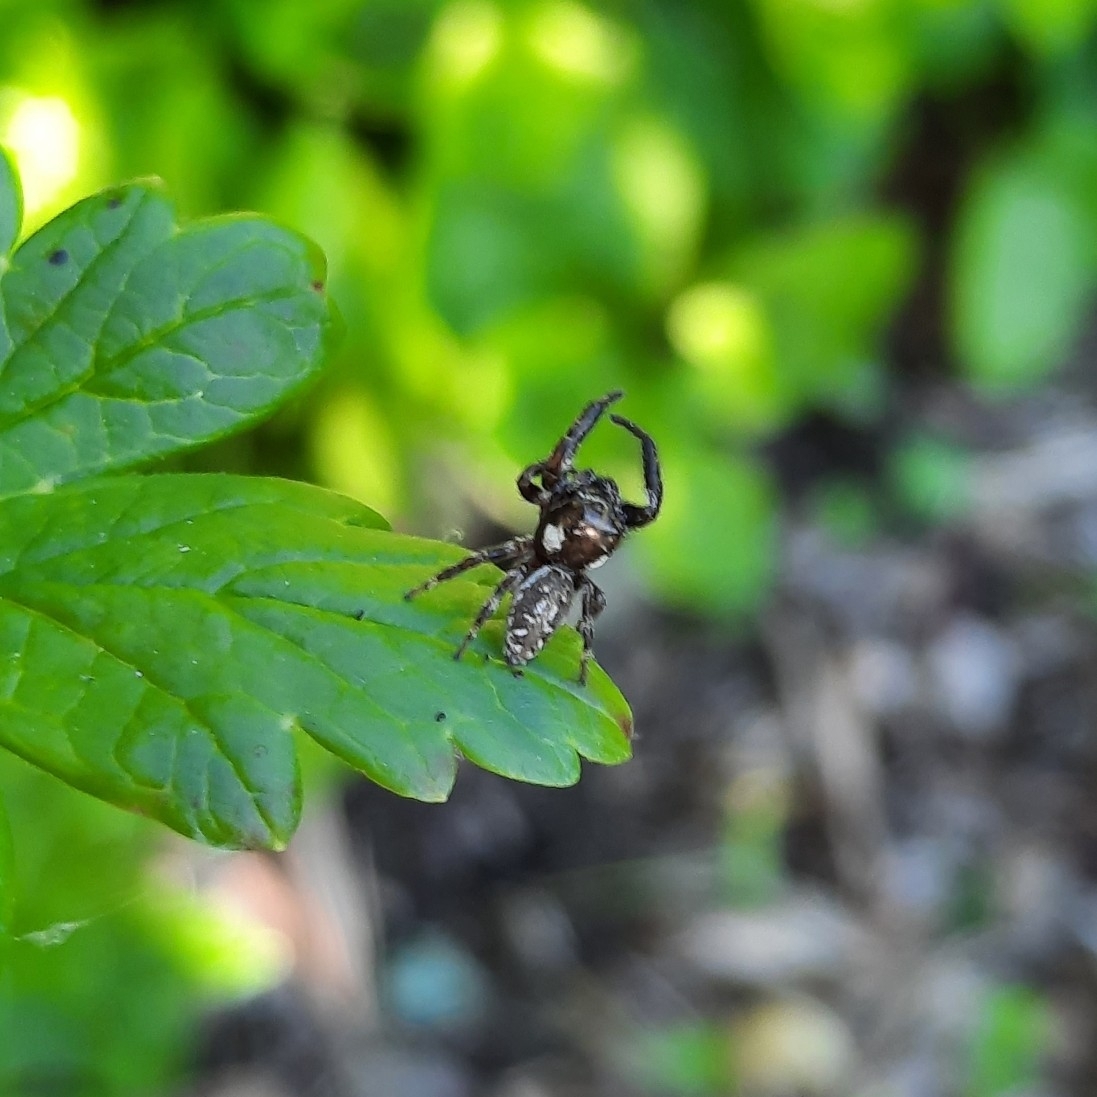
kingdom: Animalia
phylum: Arthropoda
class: Arachnida
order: Araneae
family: Salticidae
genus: Macaroeris
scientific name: Macaroeris nidicolens
